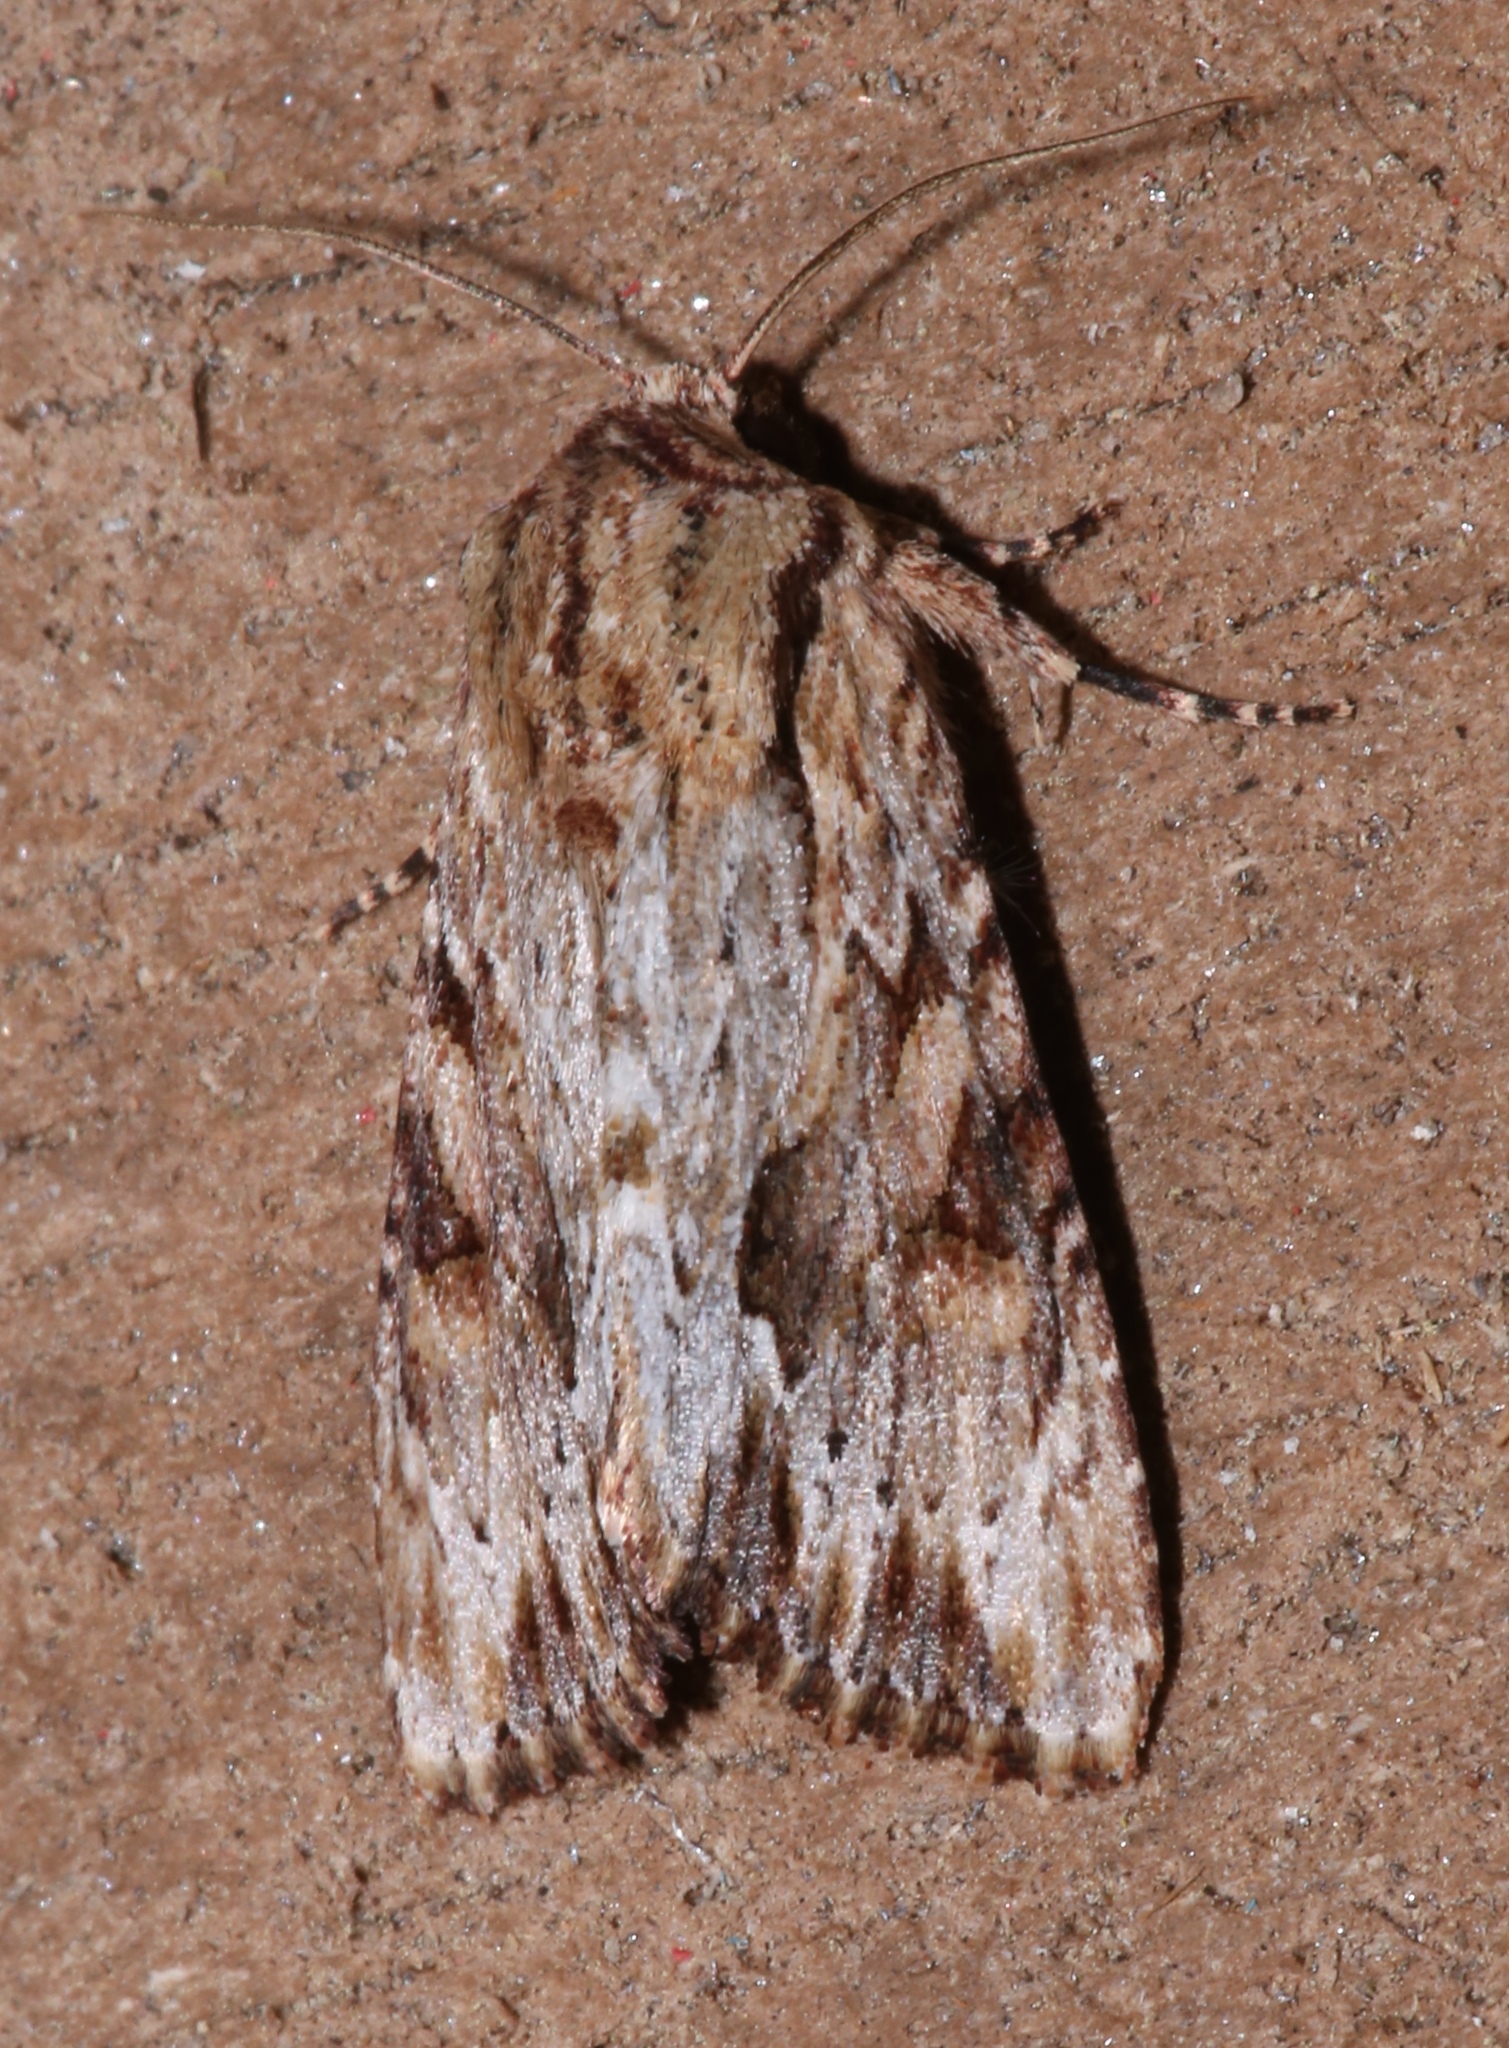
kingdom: Animalia
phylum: Arthropoda
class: Insecta
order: Lepidoptera
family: Noctuidae
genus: Achatia
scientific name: Achatia mucens
